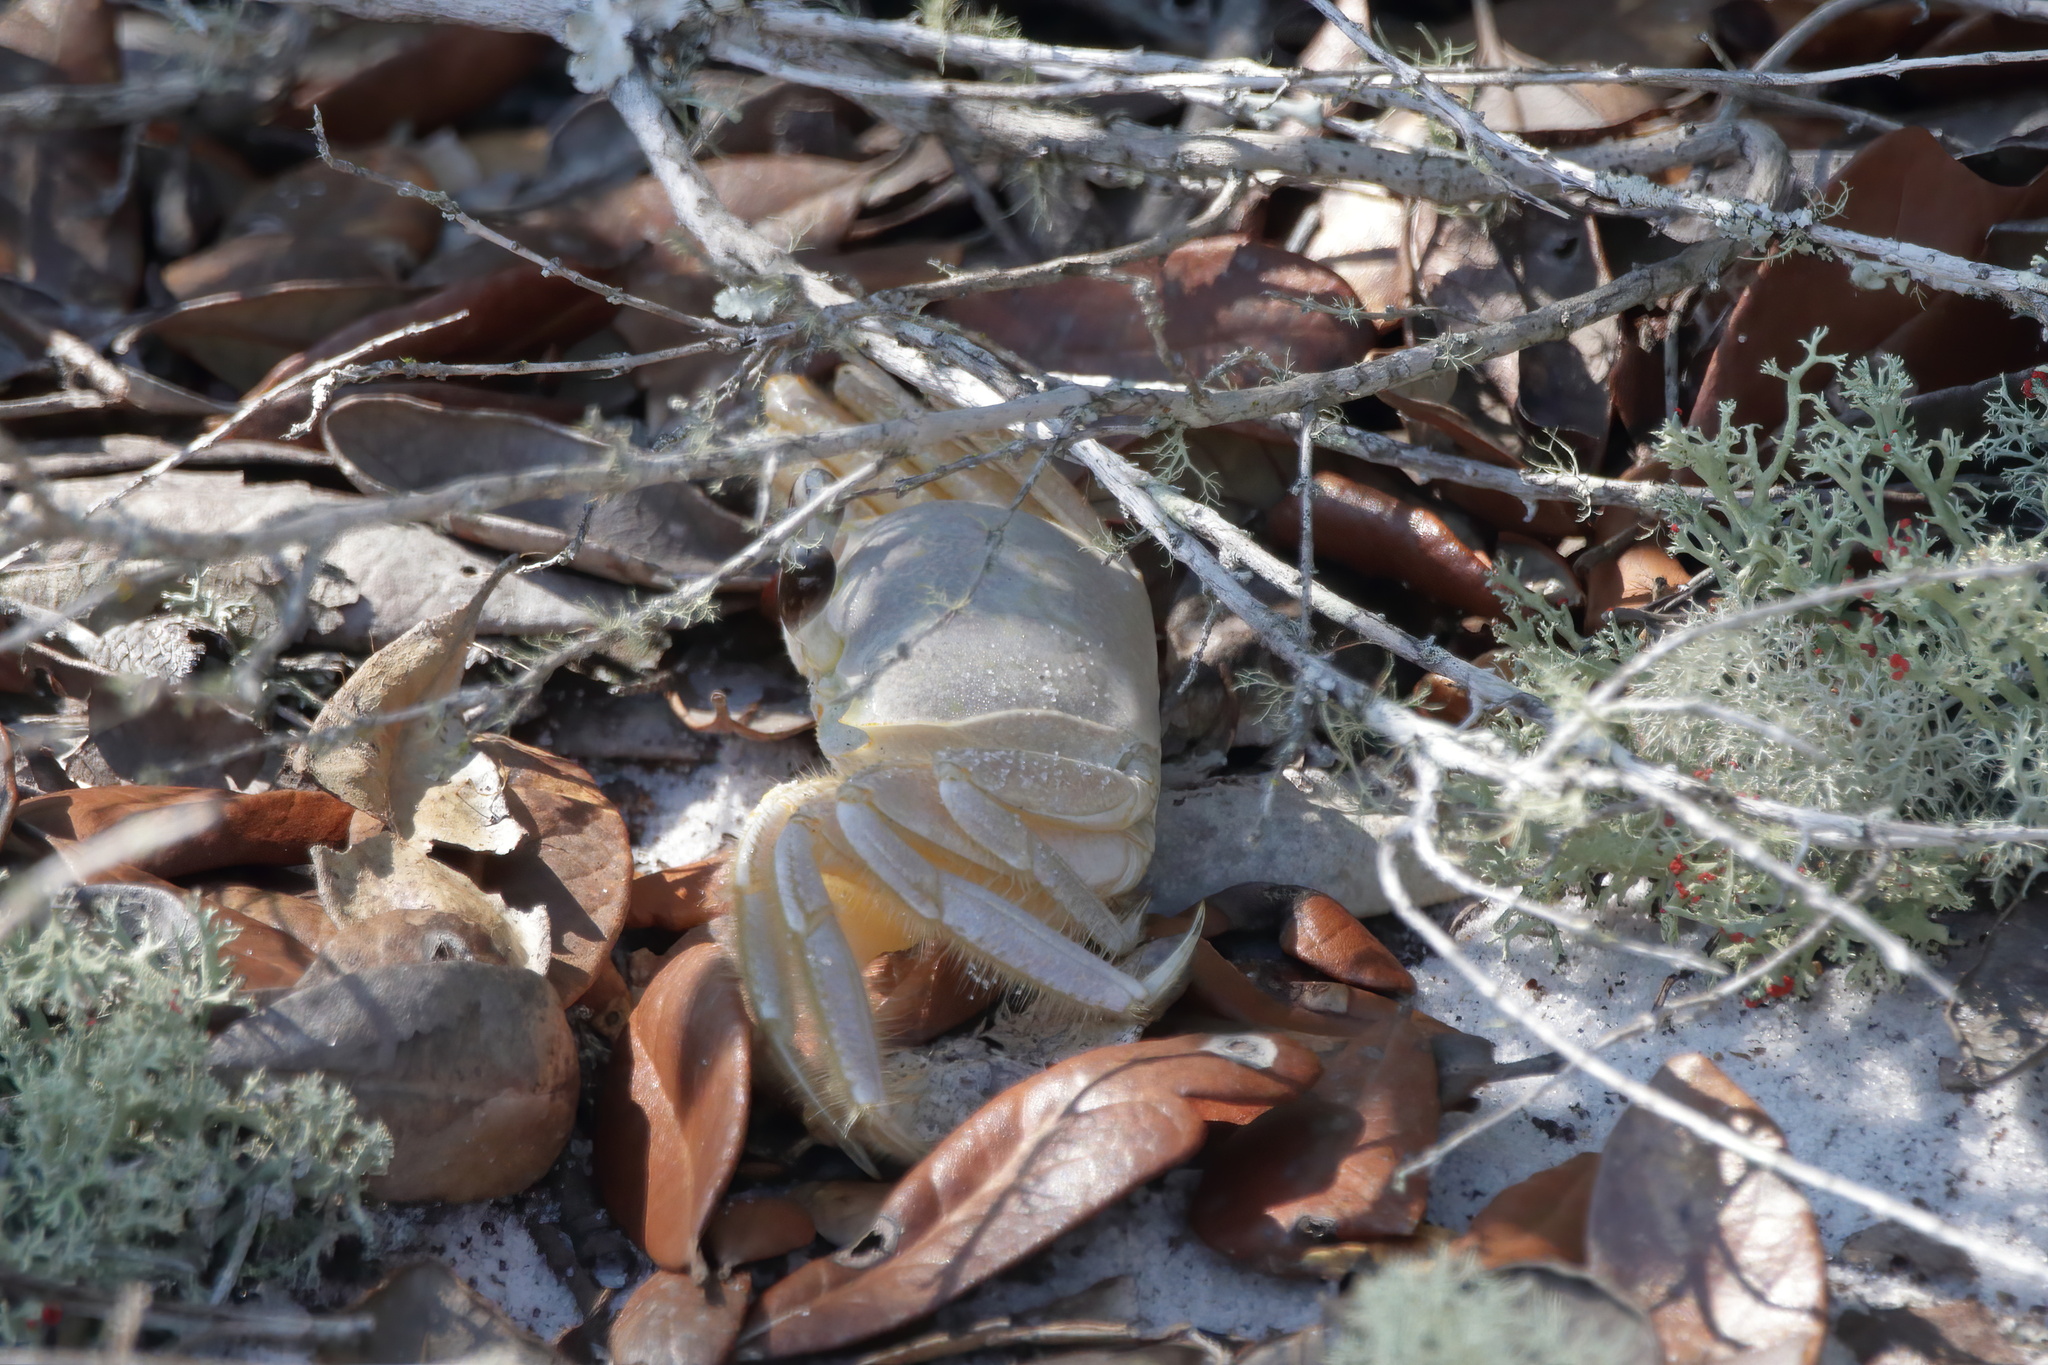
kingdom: Animalia
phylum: Arthropoda
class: Malacostraca
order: Decapoda
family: Ocypodidae
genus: Ocypode
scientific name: Ocypode quadrata
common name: Ghost crab
